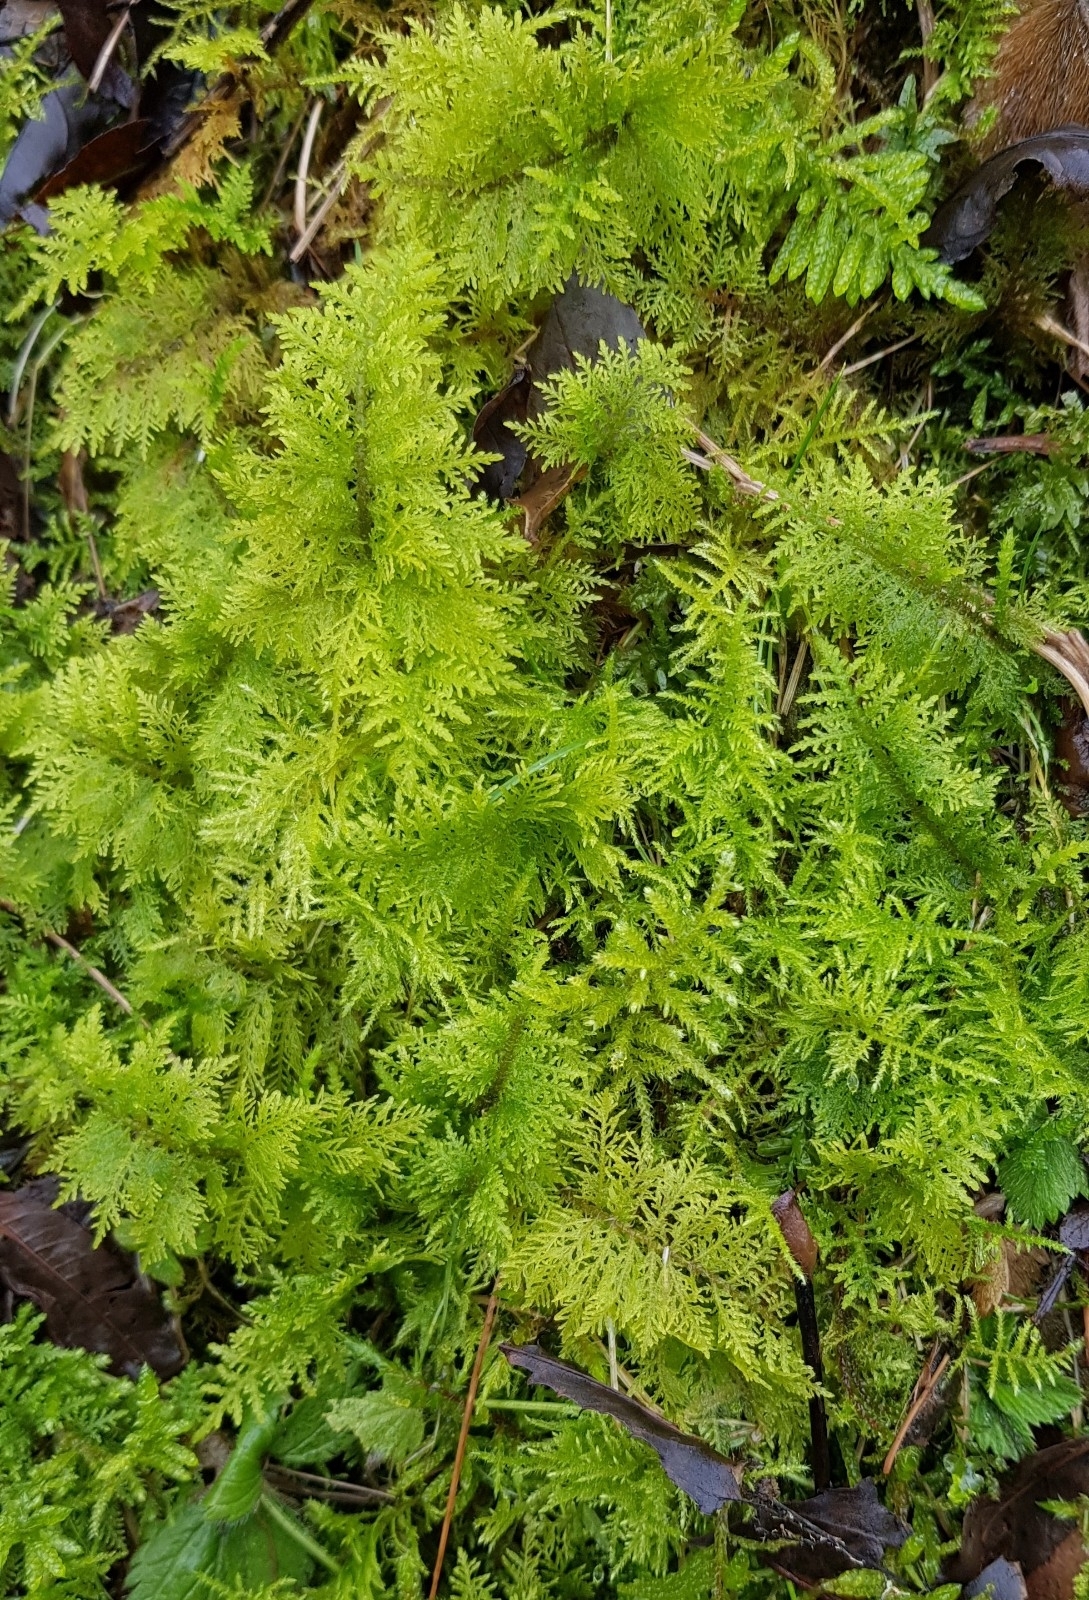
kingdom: Plantae
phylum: Bryophyta
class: Bryopsida
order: Hypnales
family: Thuidiaceae
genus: Thuidium
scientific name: Thuidium tamariscinum
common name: Common tamarisk-moss
